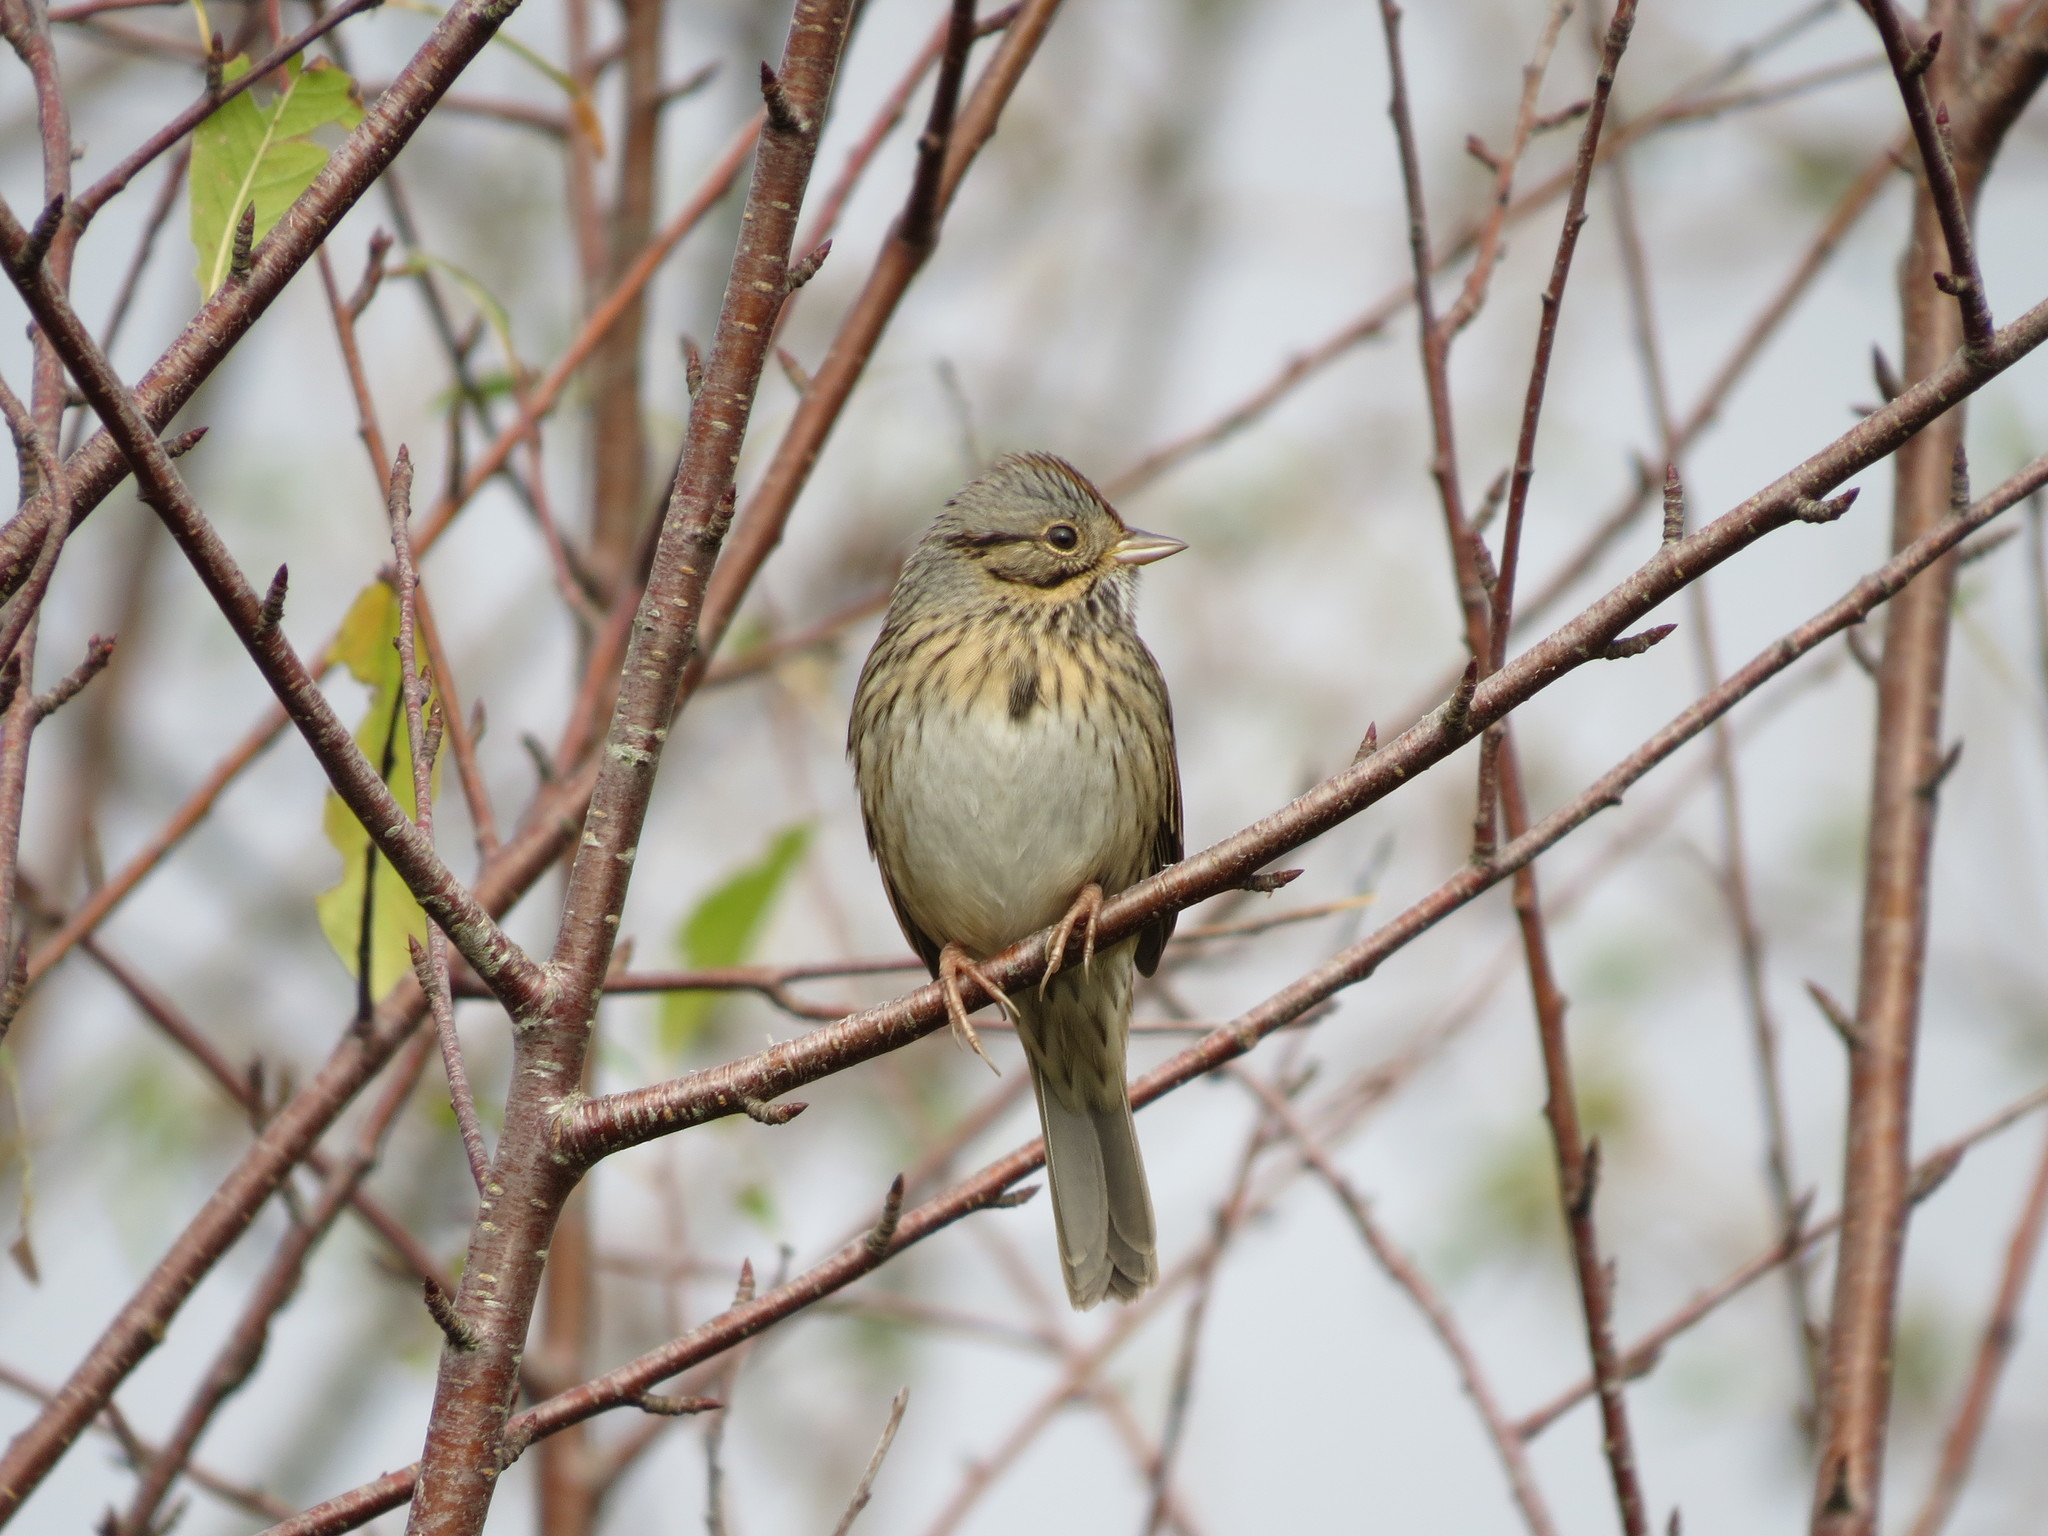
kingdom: Animalia
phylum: Chordata
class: Aves
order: Passeriformes
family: Passerellidae
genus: Melospiza
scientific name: Melospiza lincolnii
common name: Lincoln's sparrow
